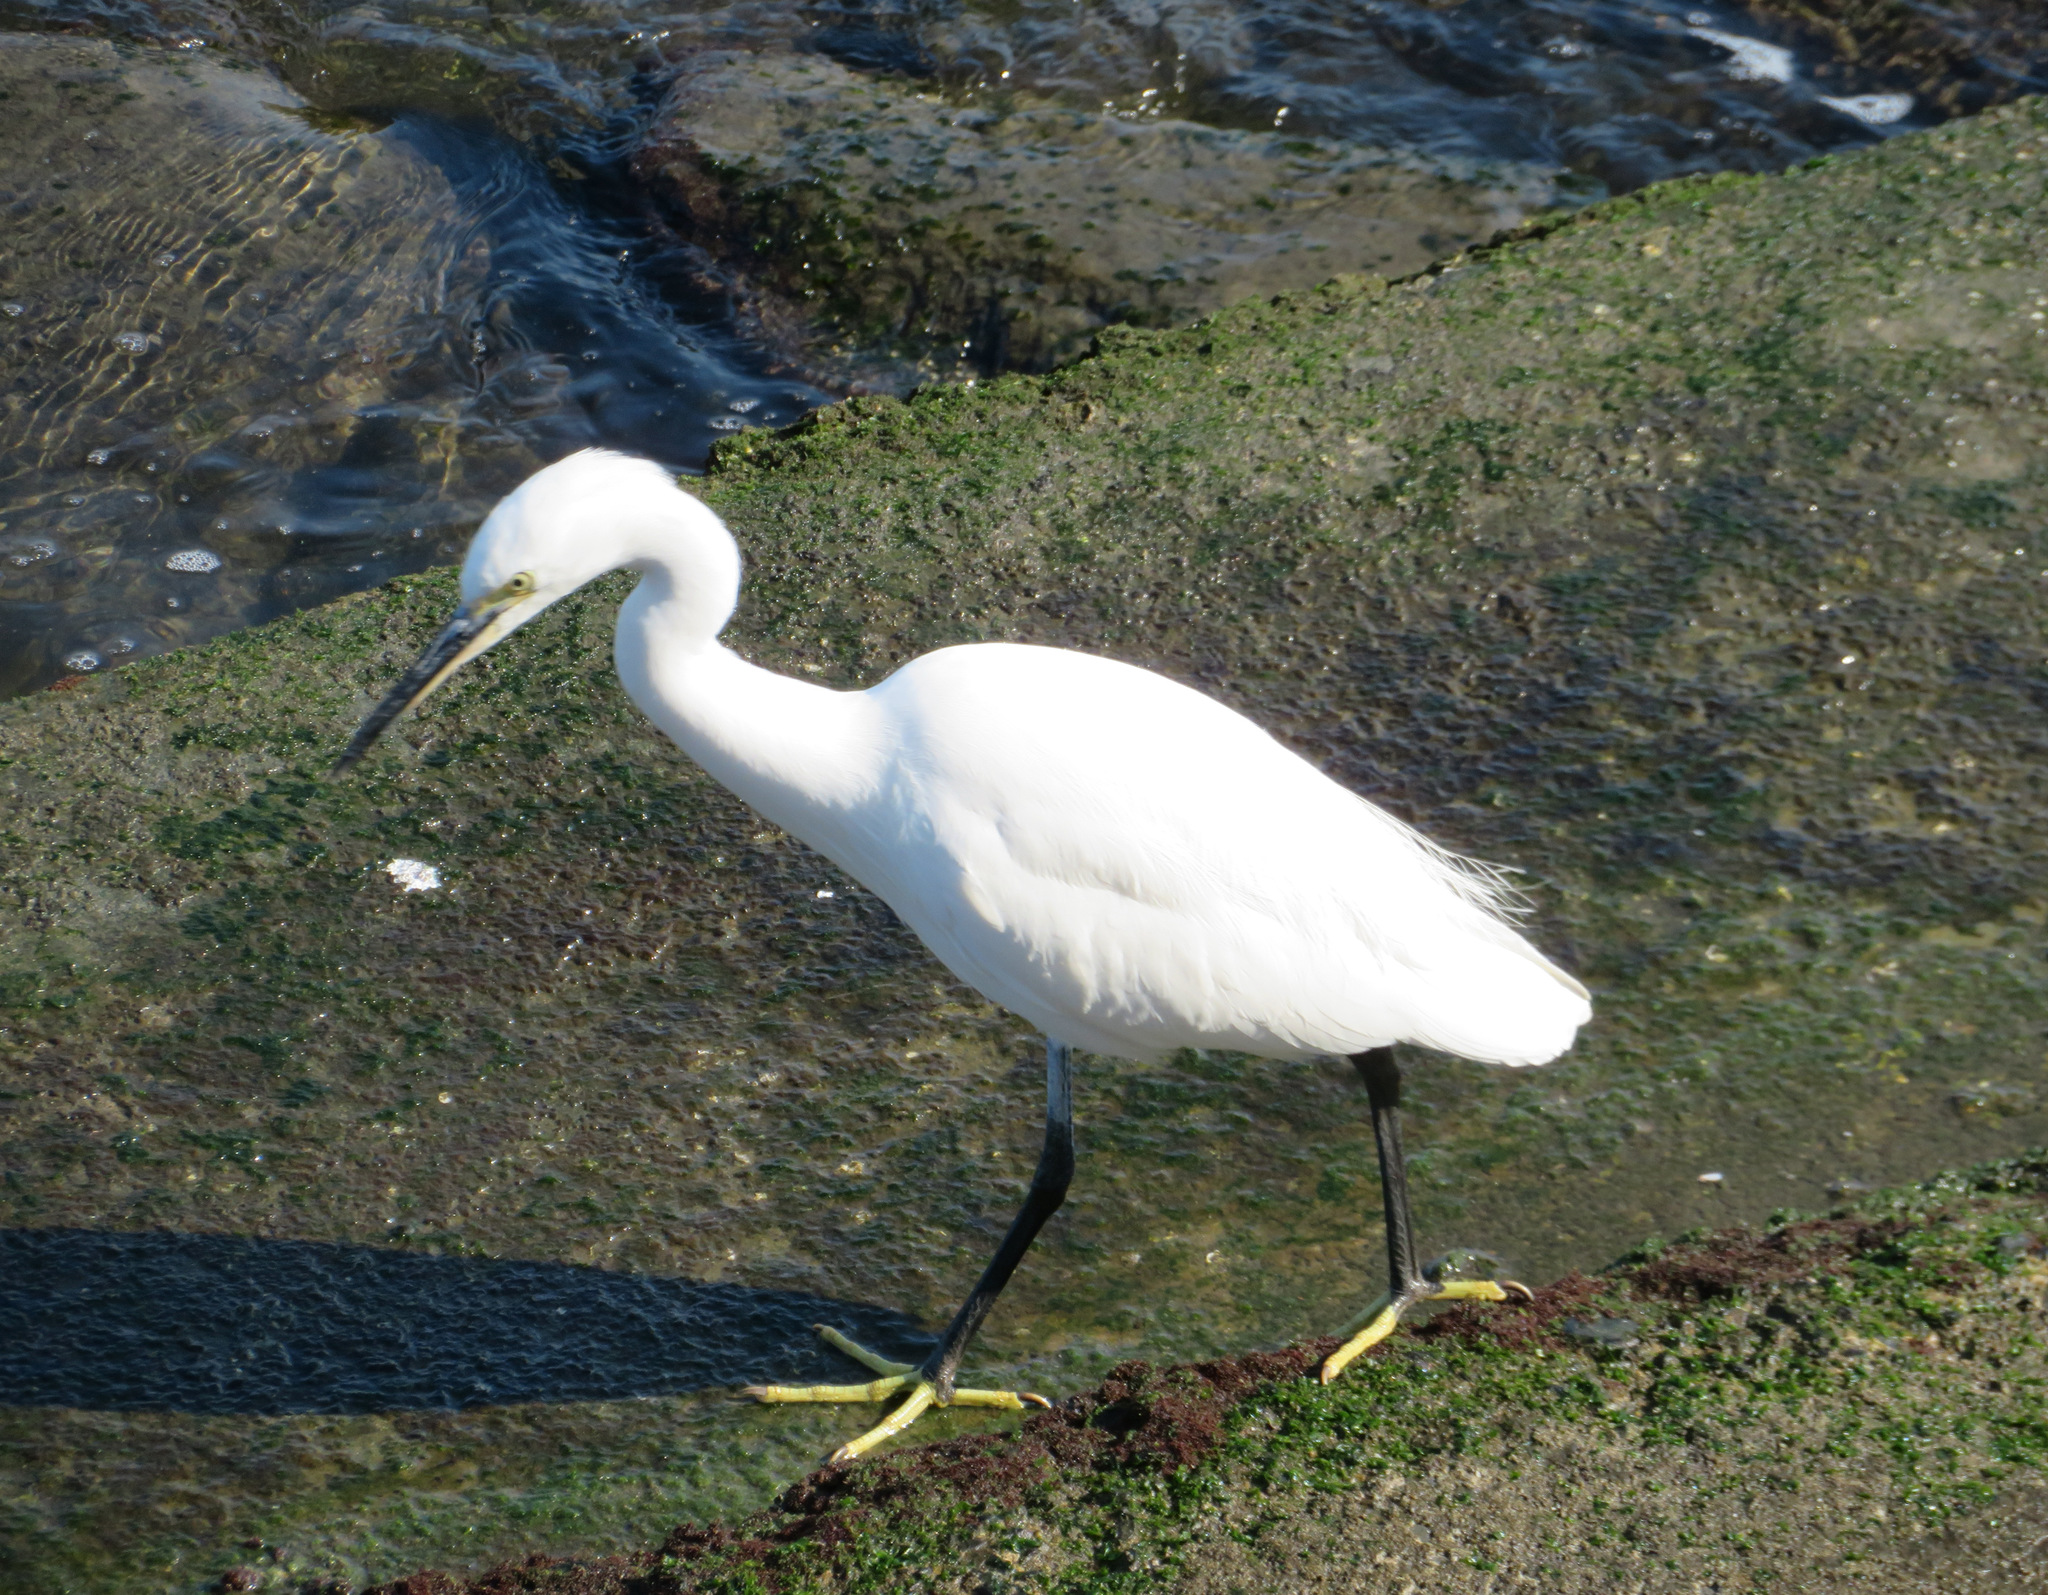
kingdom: Animalia
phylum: Chordata
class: Aves
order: Pelecaniformes
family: Ardeidae
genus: Egretta
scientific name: Egretta garzetta
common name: Little egret
